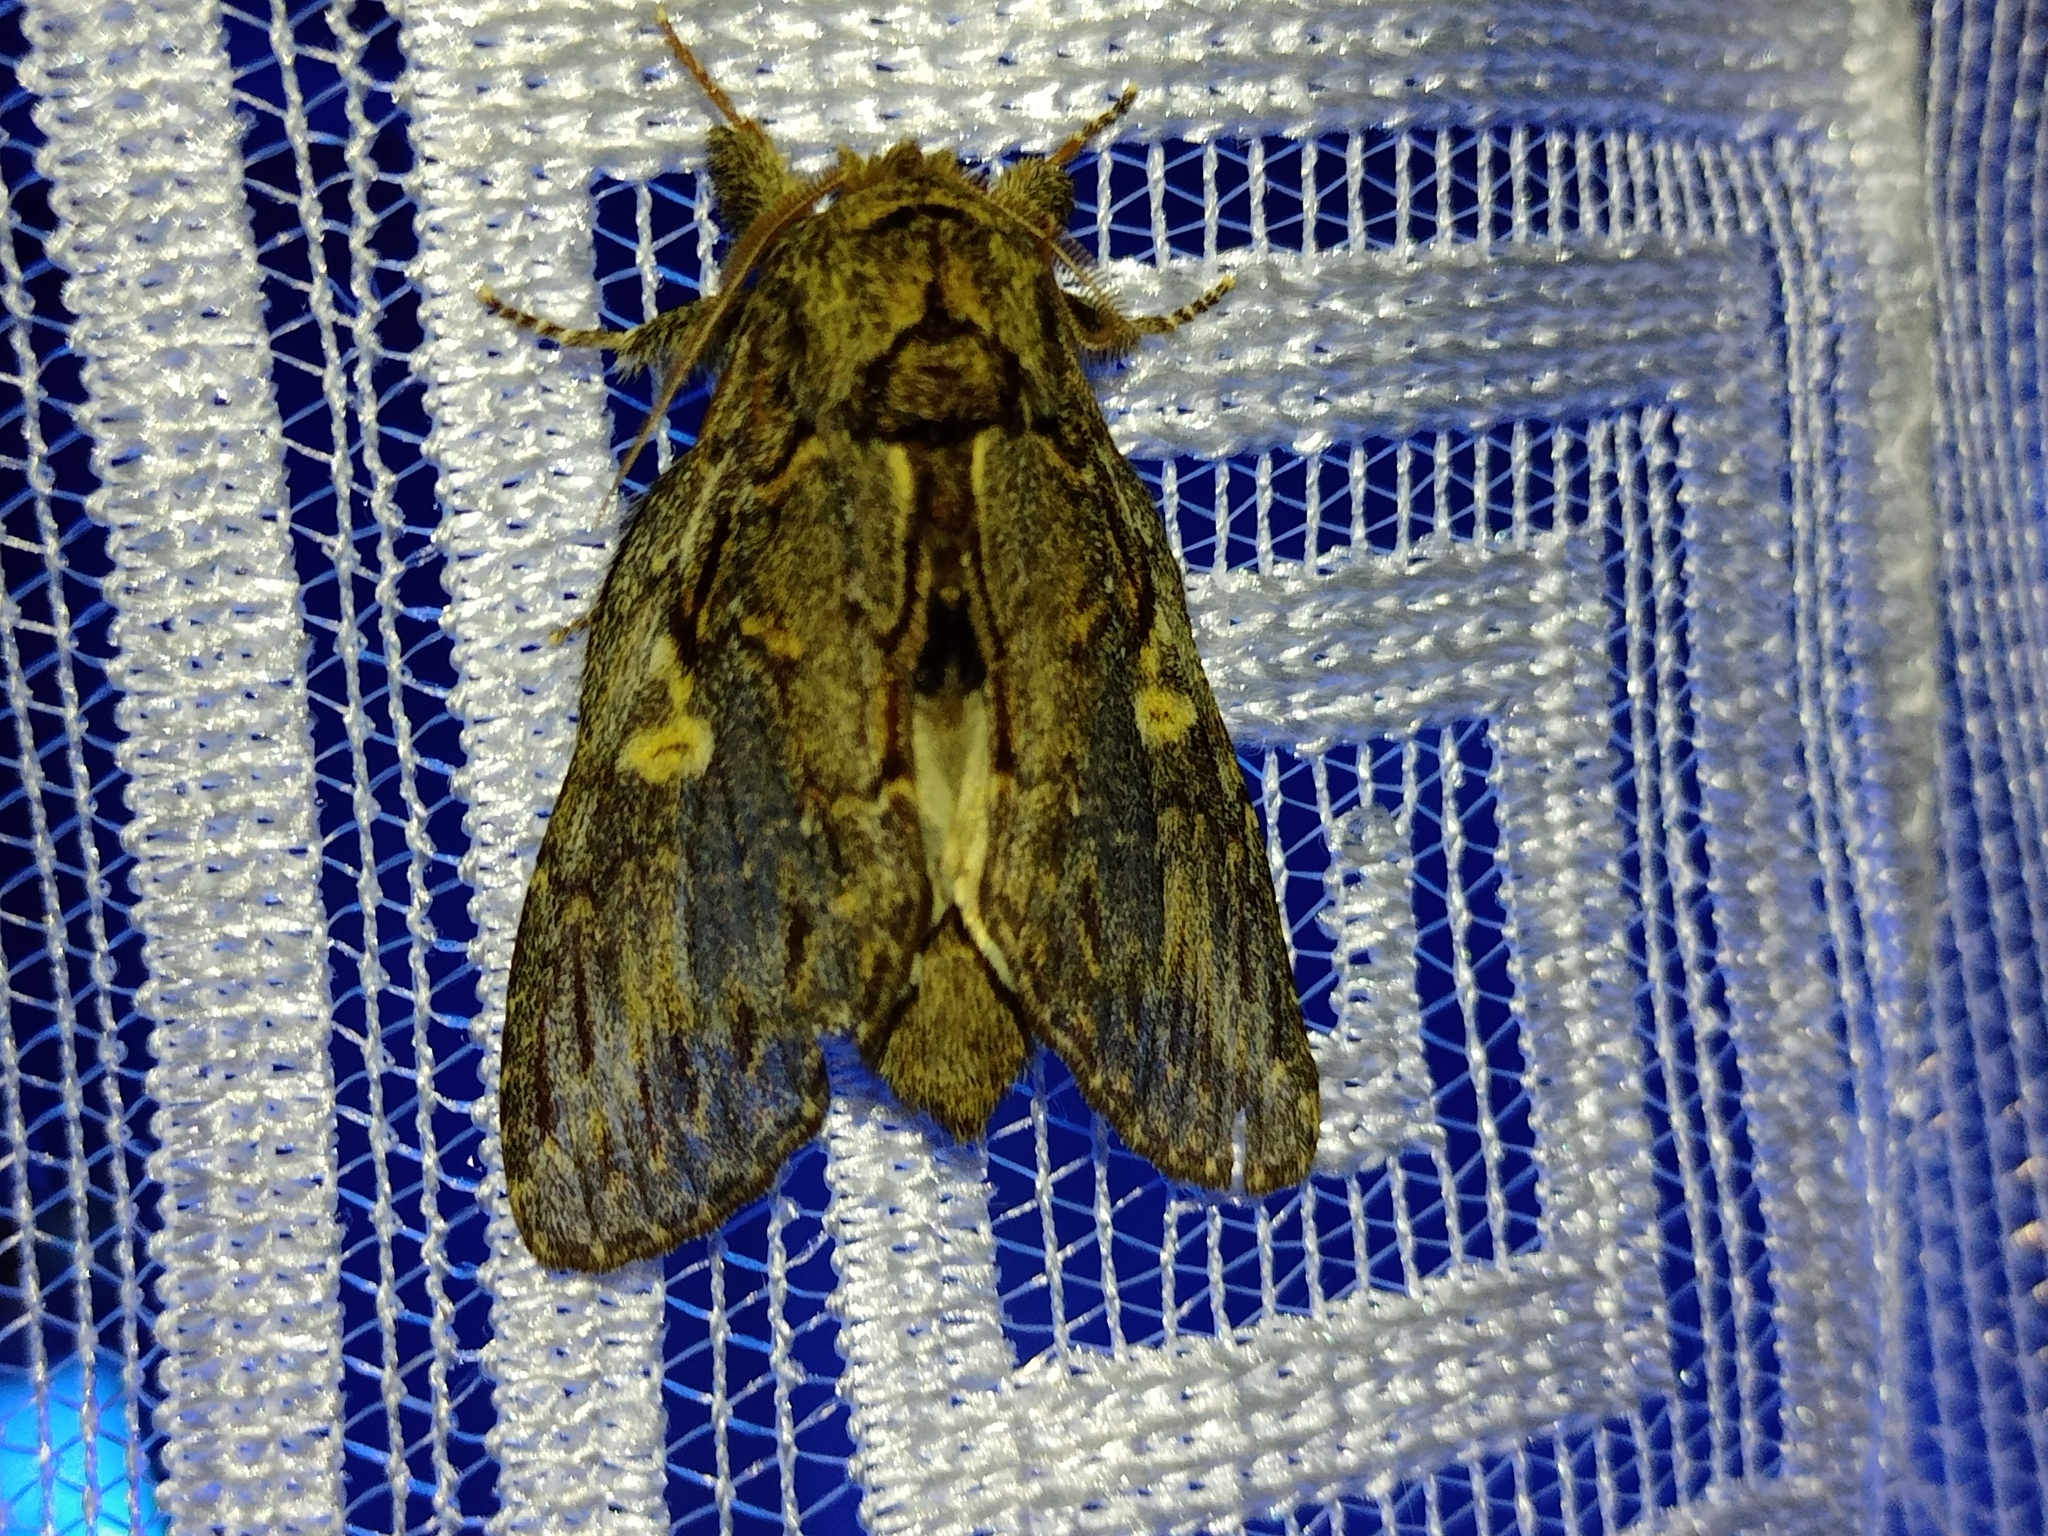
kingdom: Animalia
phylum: Arthropoda
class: Insecta
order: Lepidoptera
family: Notodontidae
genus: Peridea
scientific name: Peridea anceps
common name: Great prominent
